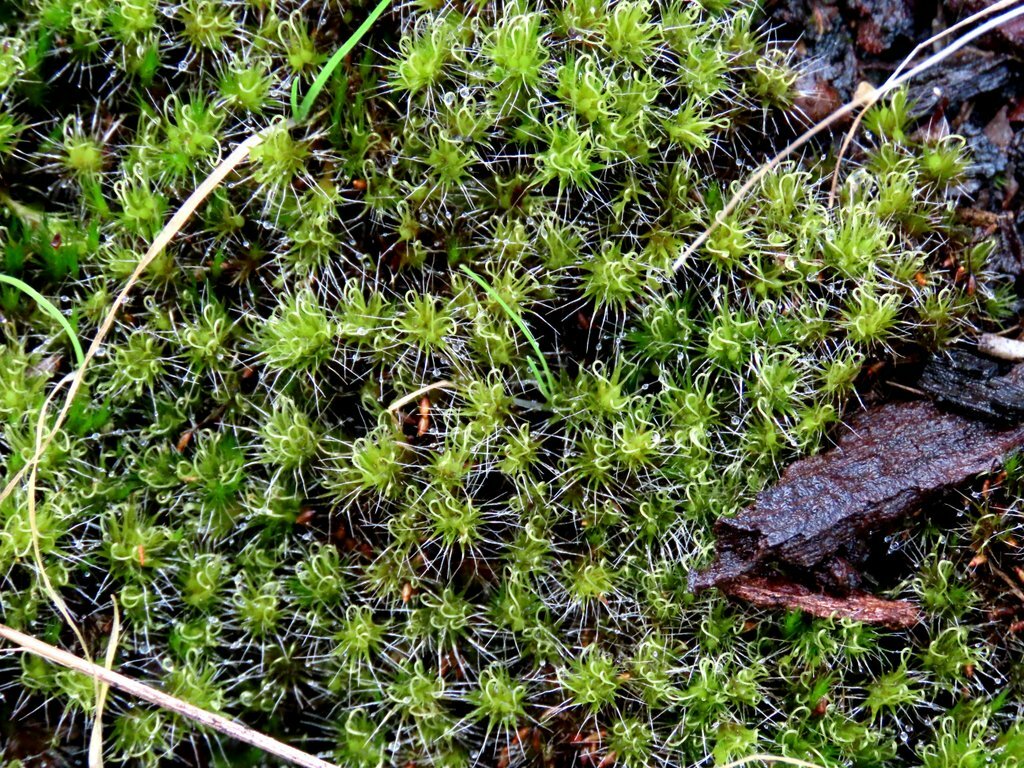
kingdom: Plantae
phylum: Bryophyta
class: Bryopsida
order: Dicranales
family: Leucobryaceae
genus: Campylopus
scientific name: Campylopus introflexus
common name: Heath star moss
